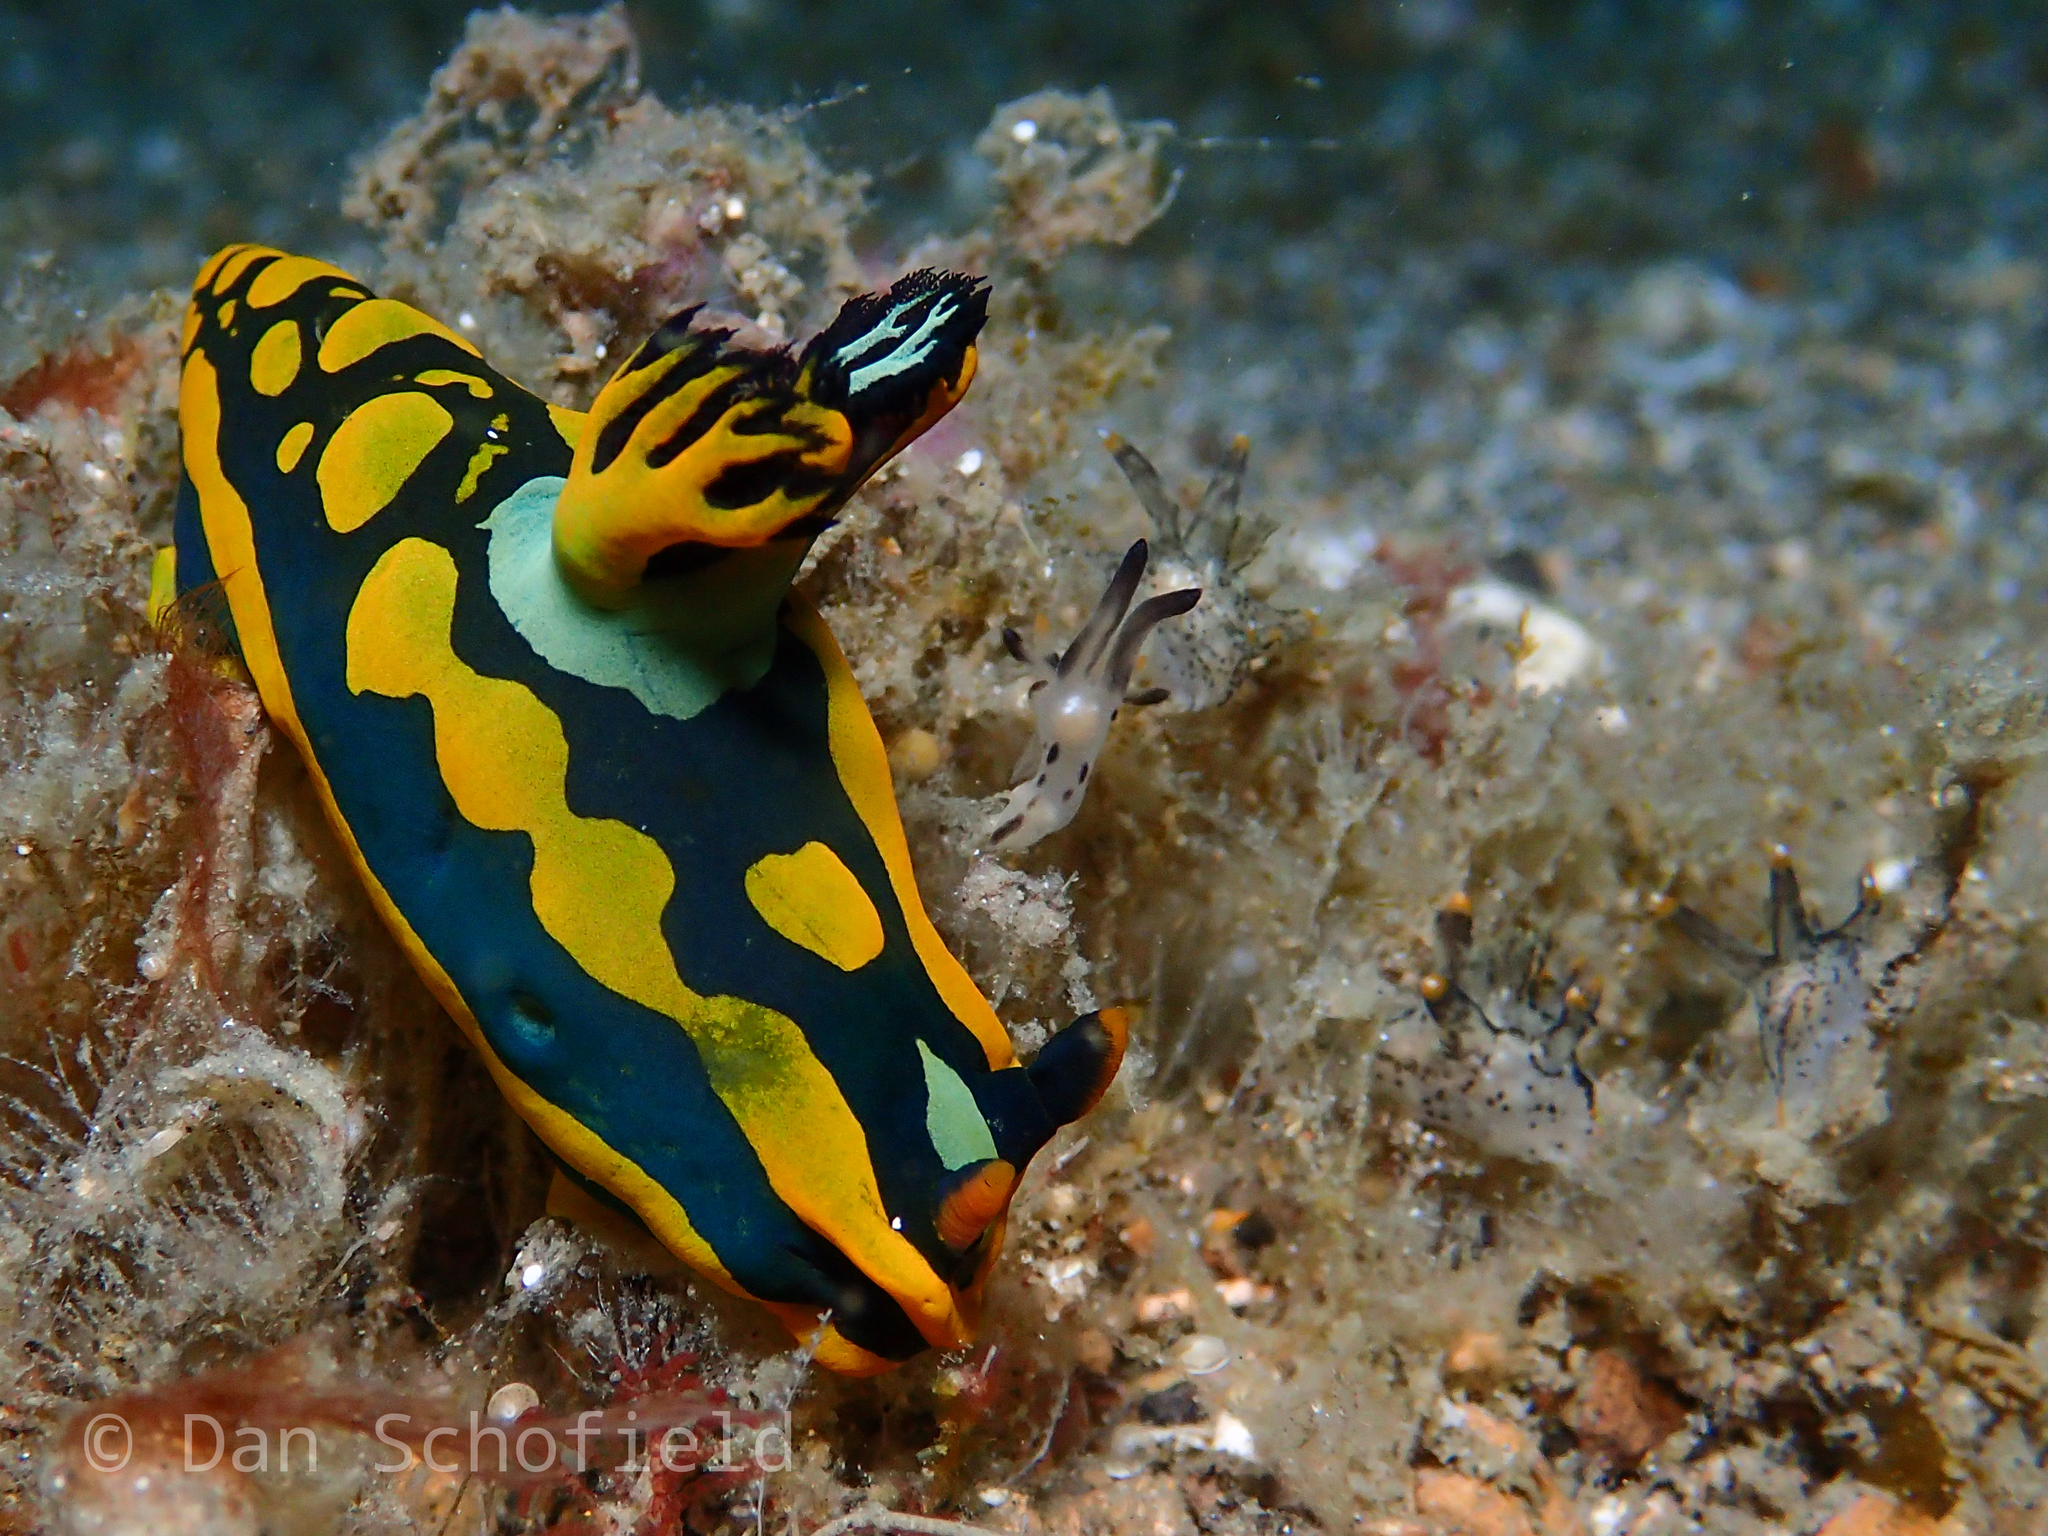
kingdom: Animalia
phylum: Mollusca
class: Gastropoda
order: Nudibranchia
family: Polyceridae
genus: Tambja
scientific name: Tambja gabrielae
